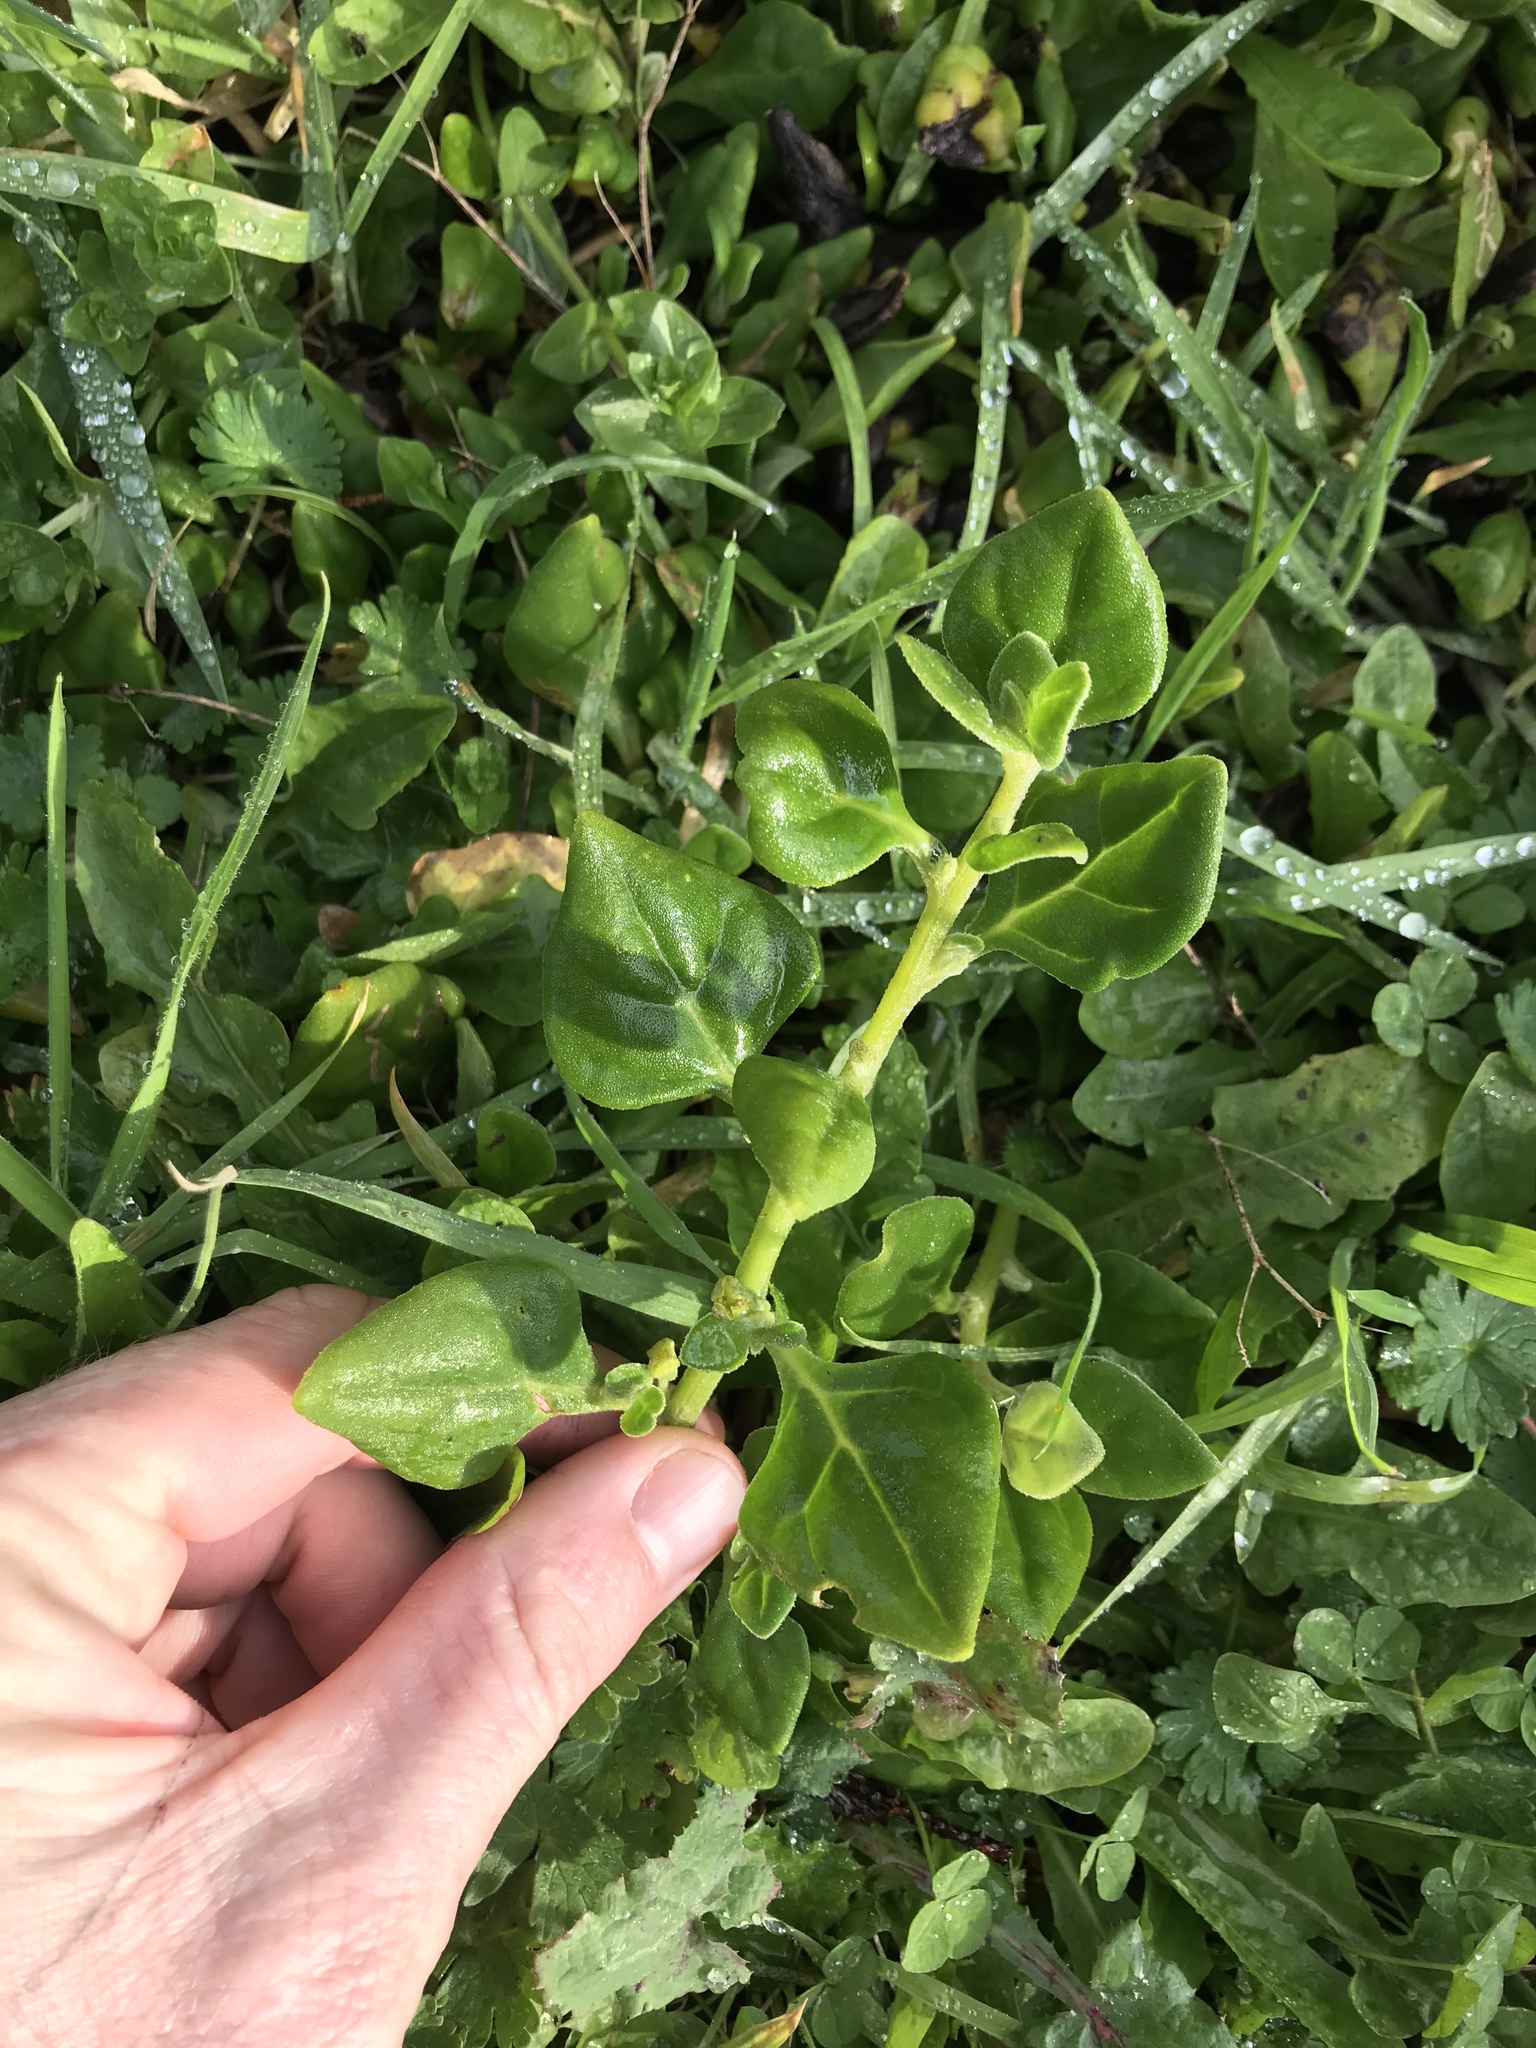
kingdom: Plantae
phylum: Tracheophyta
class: Magnoliopsida
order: Caryophyllales
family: Aizoaceae
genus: Tetragonia
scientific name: Tetragonia tetragonoides
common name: New zealand-spinach
